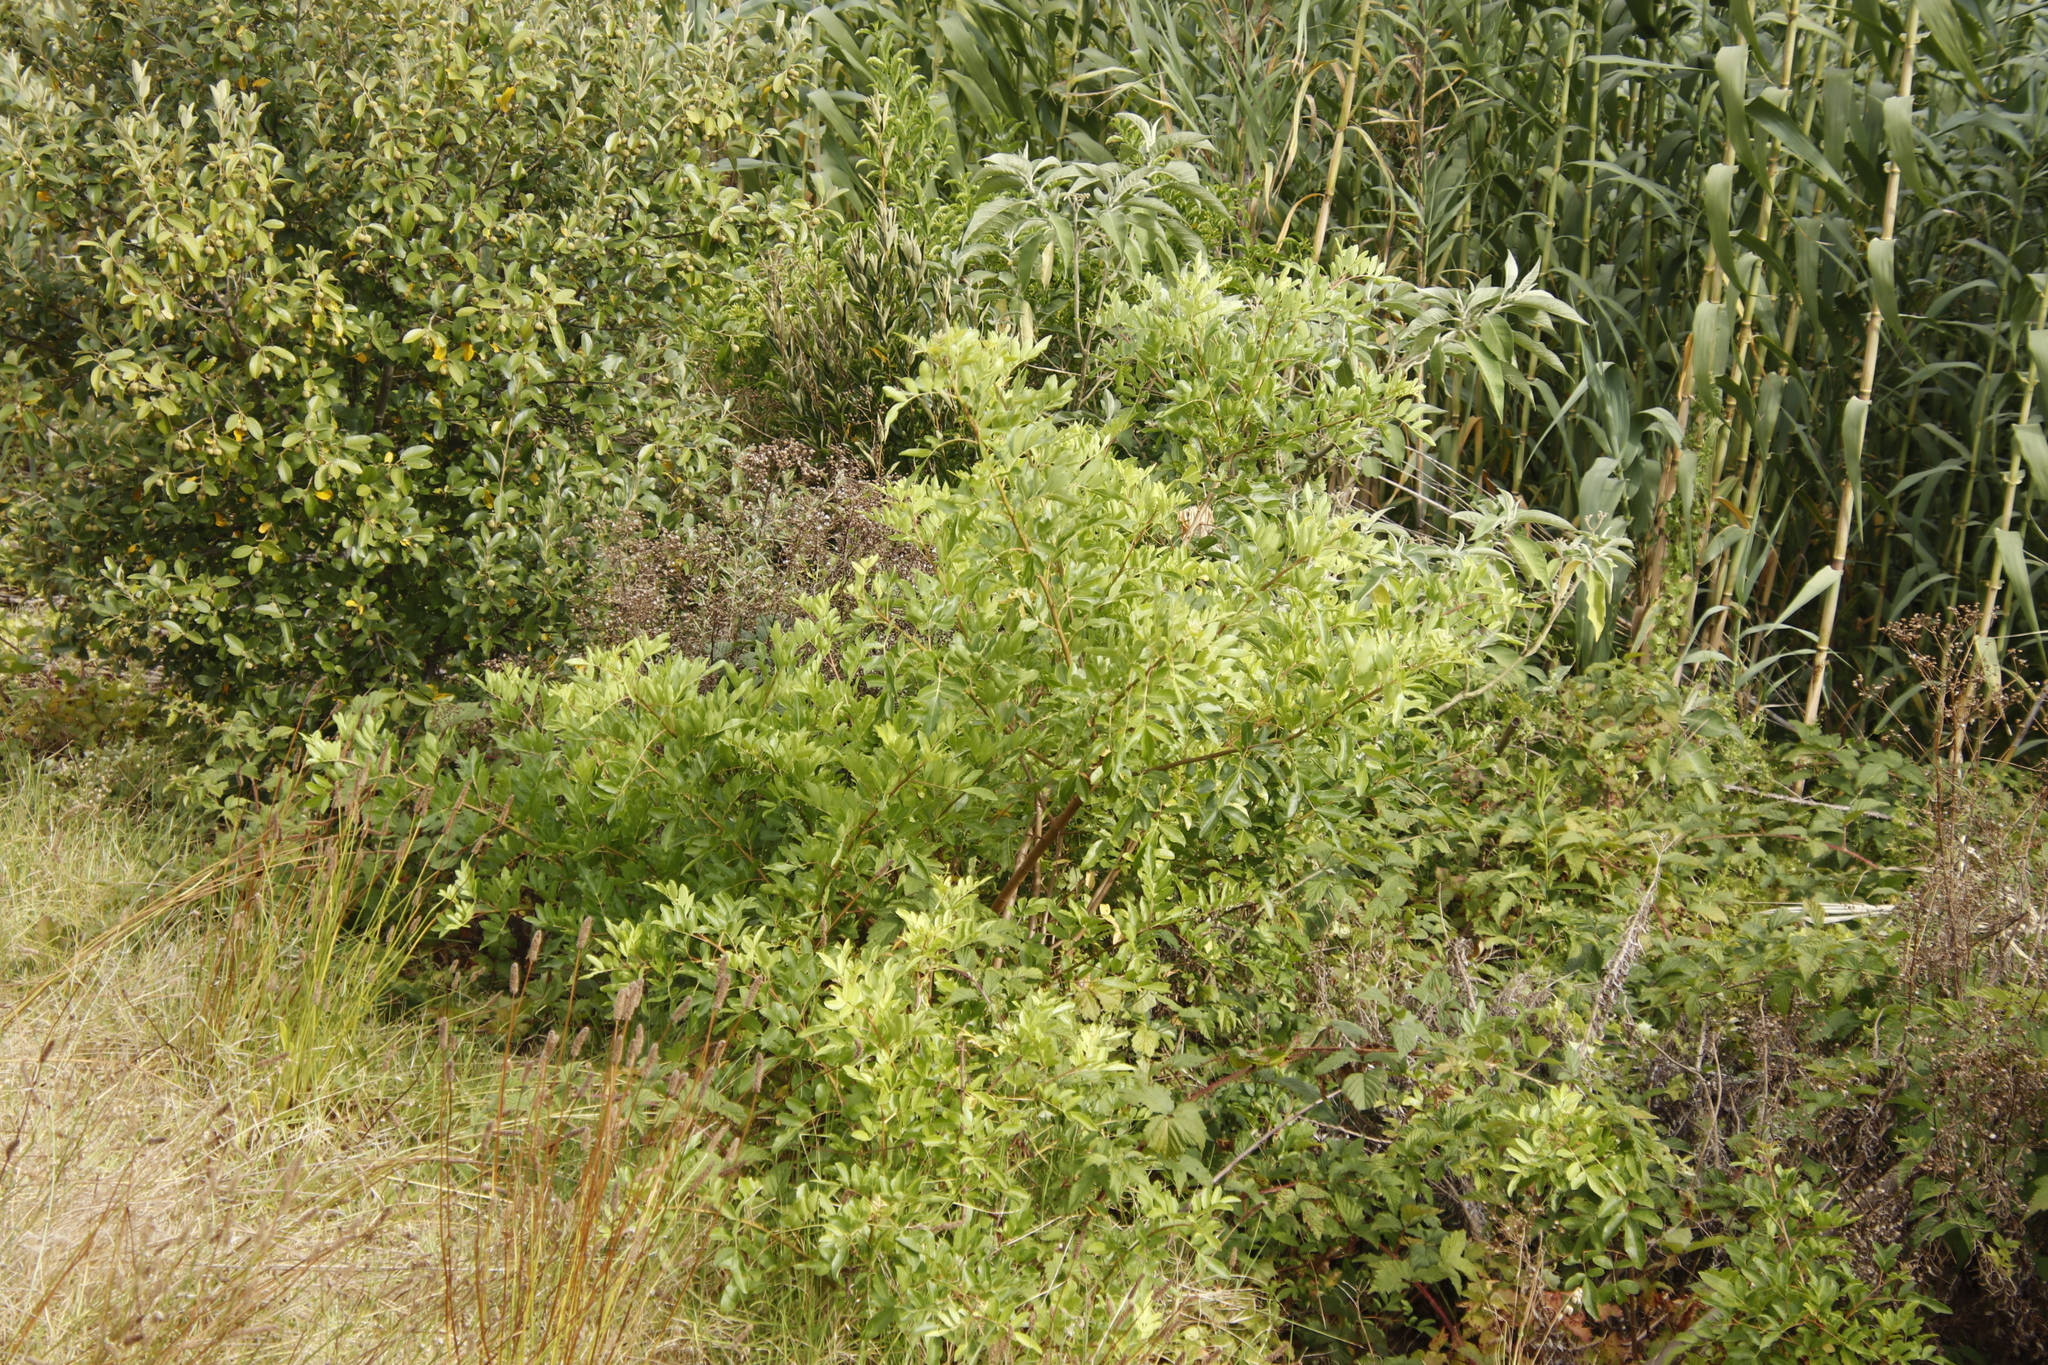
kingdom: Plantae
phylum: Tracheophyta
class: Magnoliopsida
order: Sapindales
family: Anacardiaceae
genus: Schinus
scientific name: Schinus terebinthifolia
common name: Brazilian peppertree
